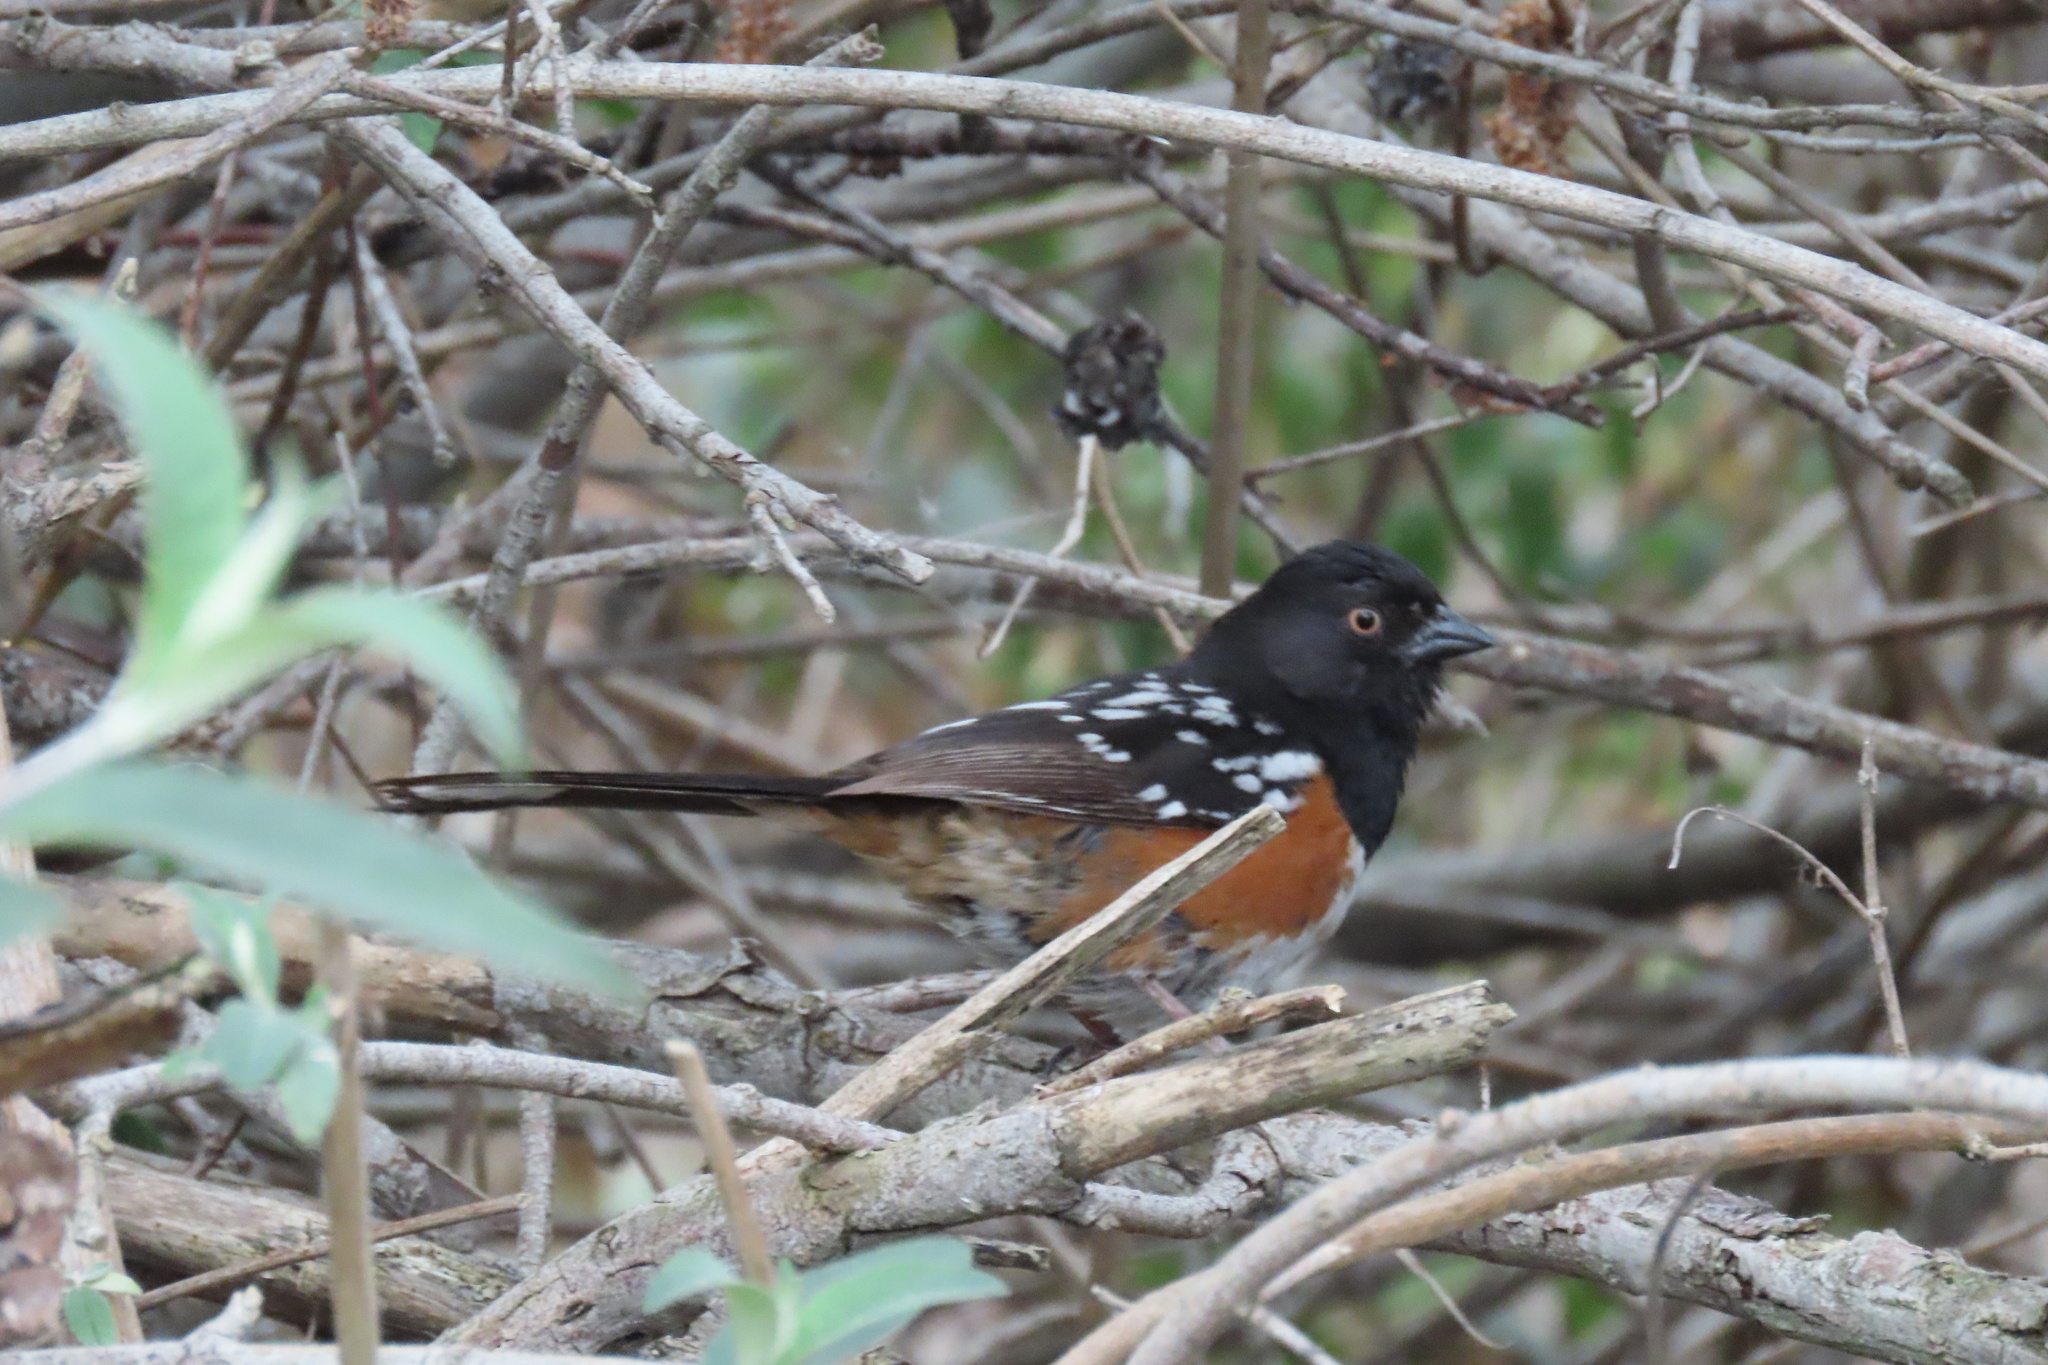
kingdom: Animalia
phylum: Chordata
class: Aves
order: Passeriformes
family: Passerellidae
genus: Pipilo
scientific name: Pipilo maculatus
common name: Spotted towhee
